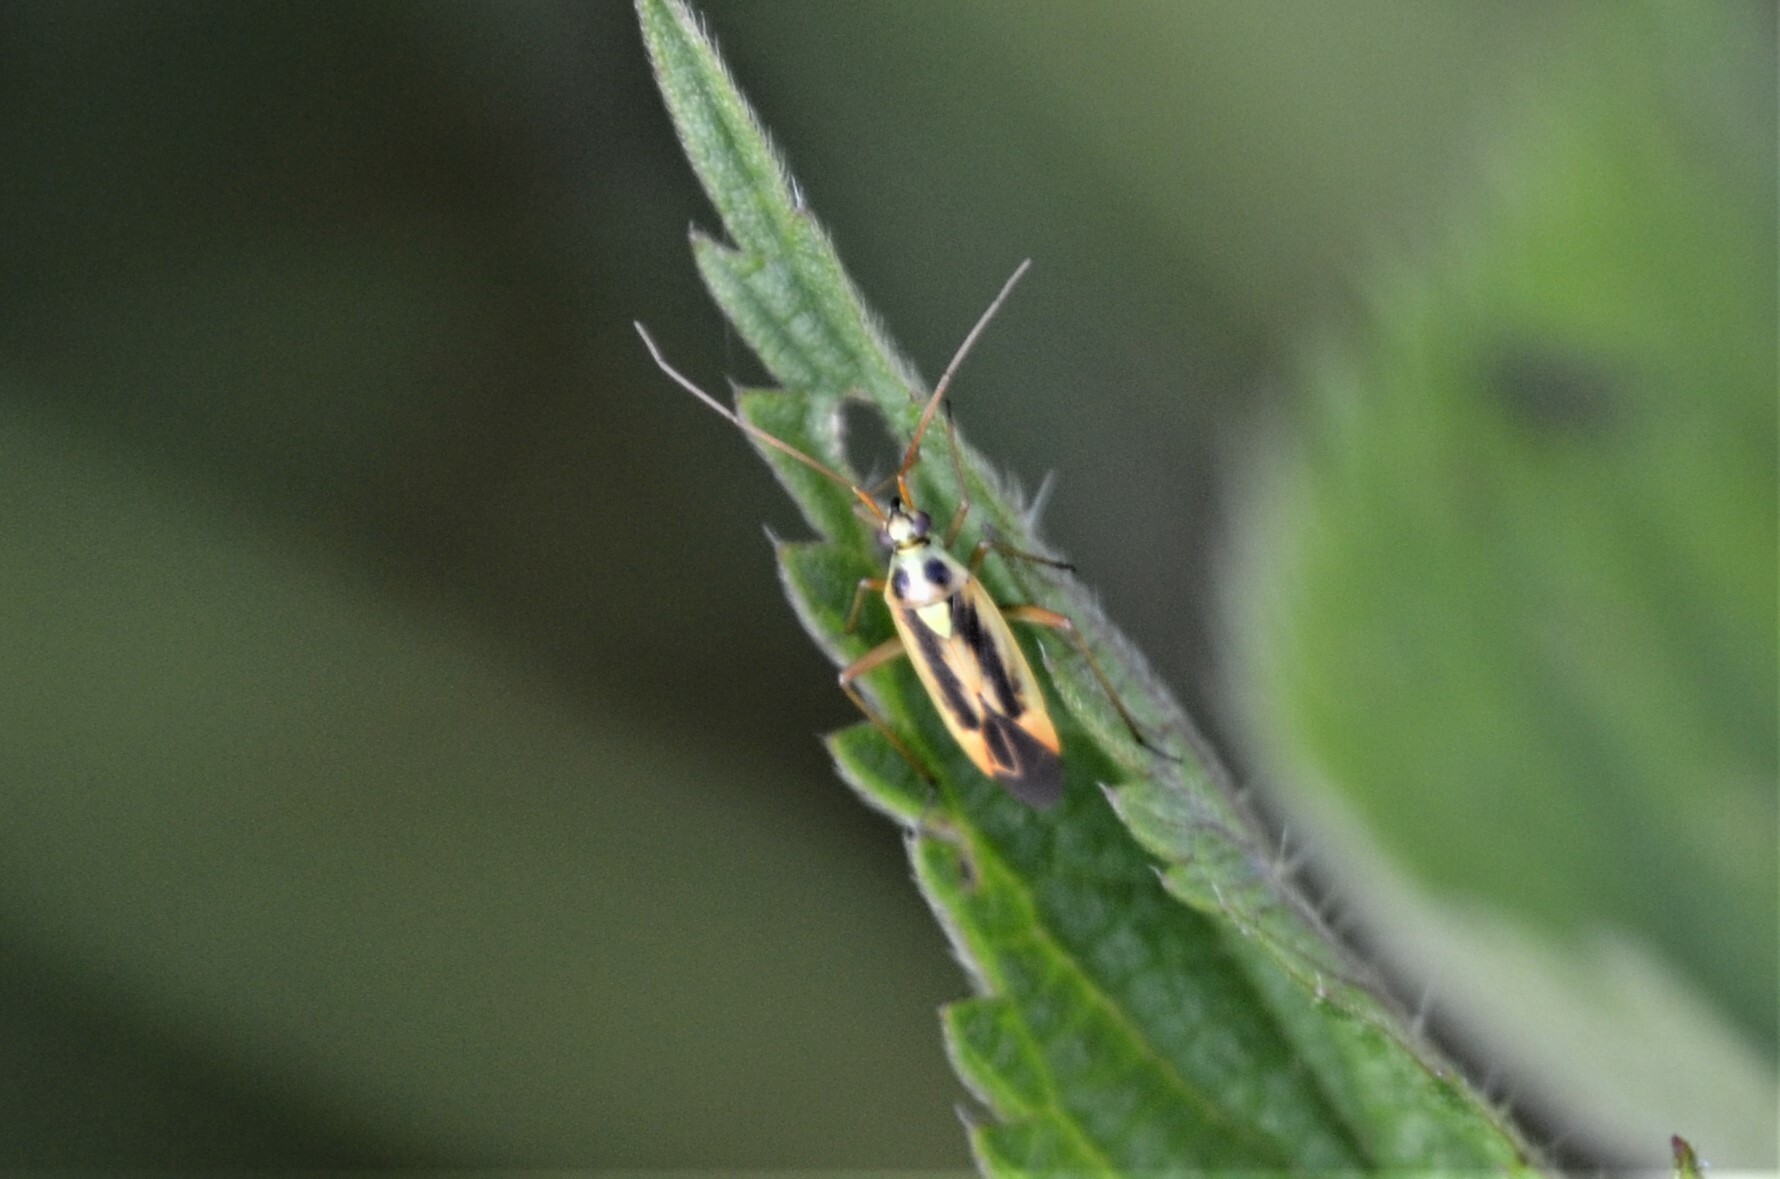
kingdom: Animalia
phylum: Arthropoda
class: Insecta
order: Hemiptera
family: Miridae
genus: Stenotus
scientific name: Stenotus binotatus
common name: Plant bug
